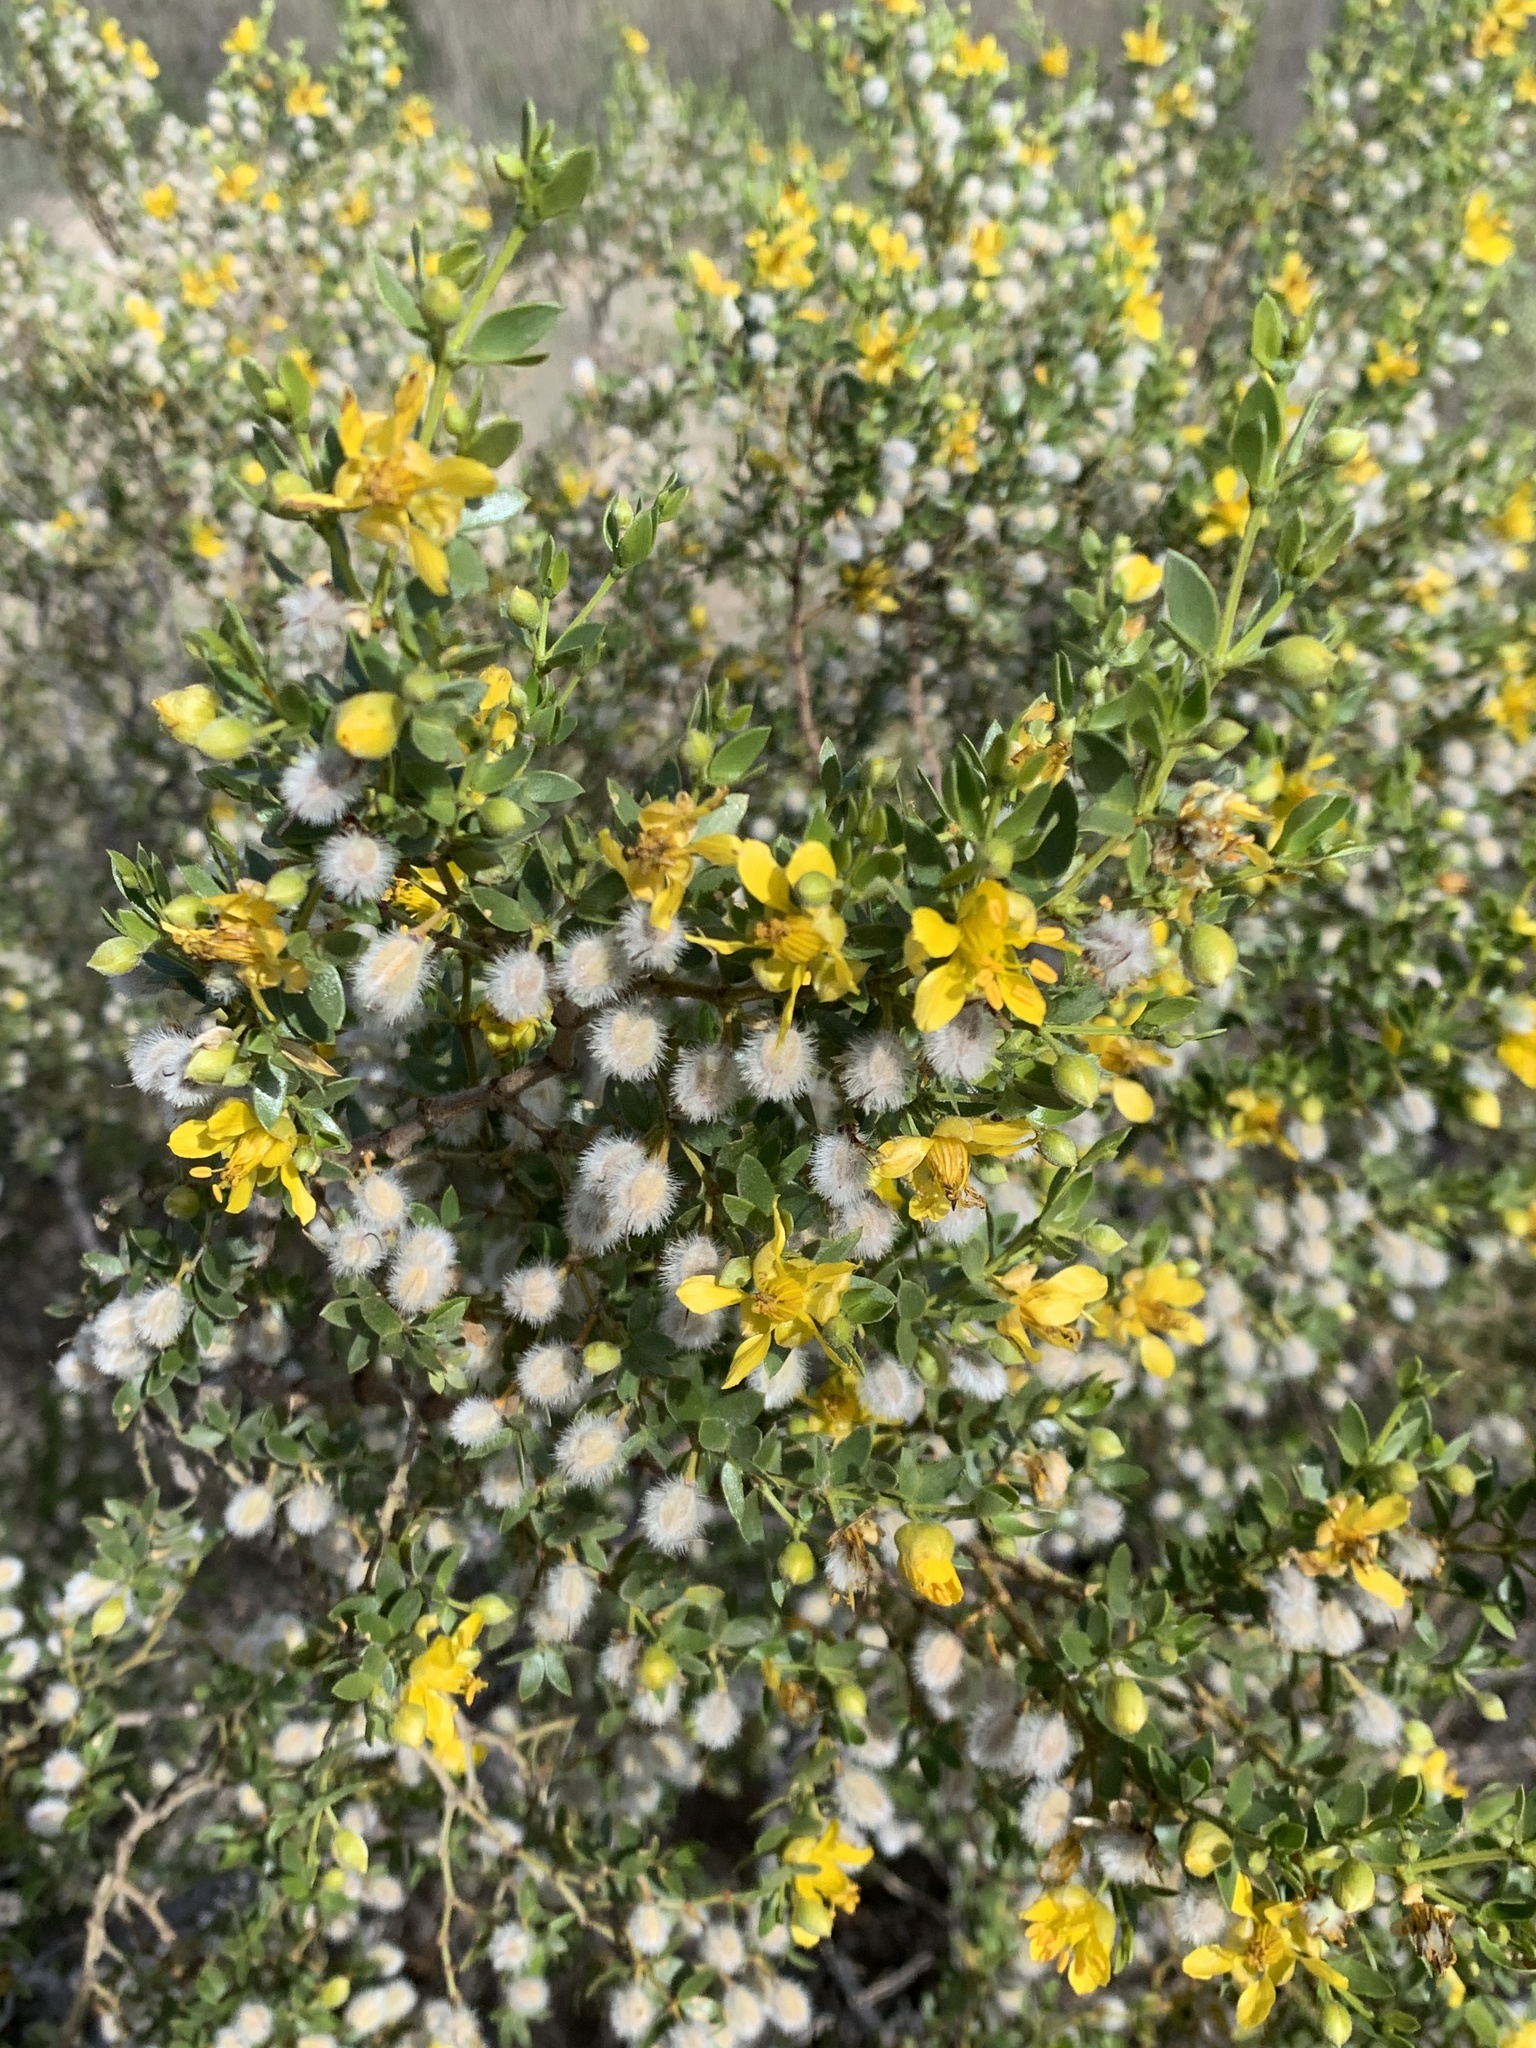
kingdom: Plantae
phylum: Tracheophyta
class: Magnoliopsida
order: Zygophyllales
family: Zygophyllaceae
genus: Larrea
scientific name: Larrea divaricata
